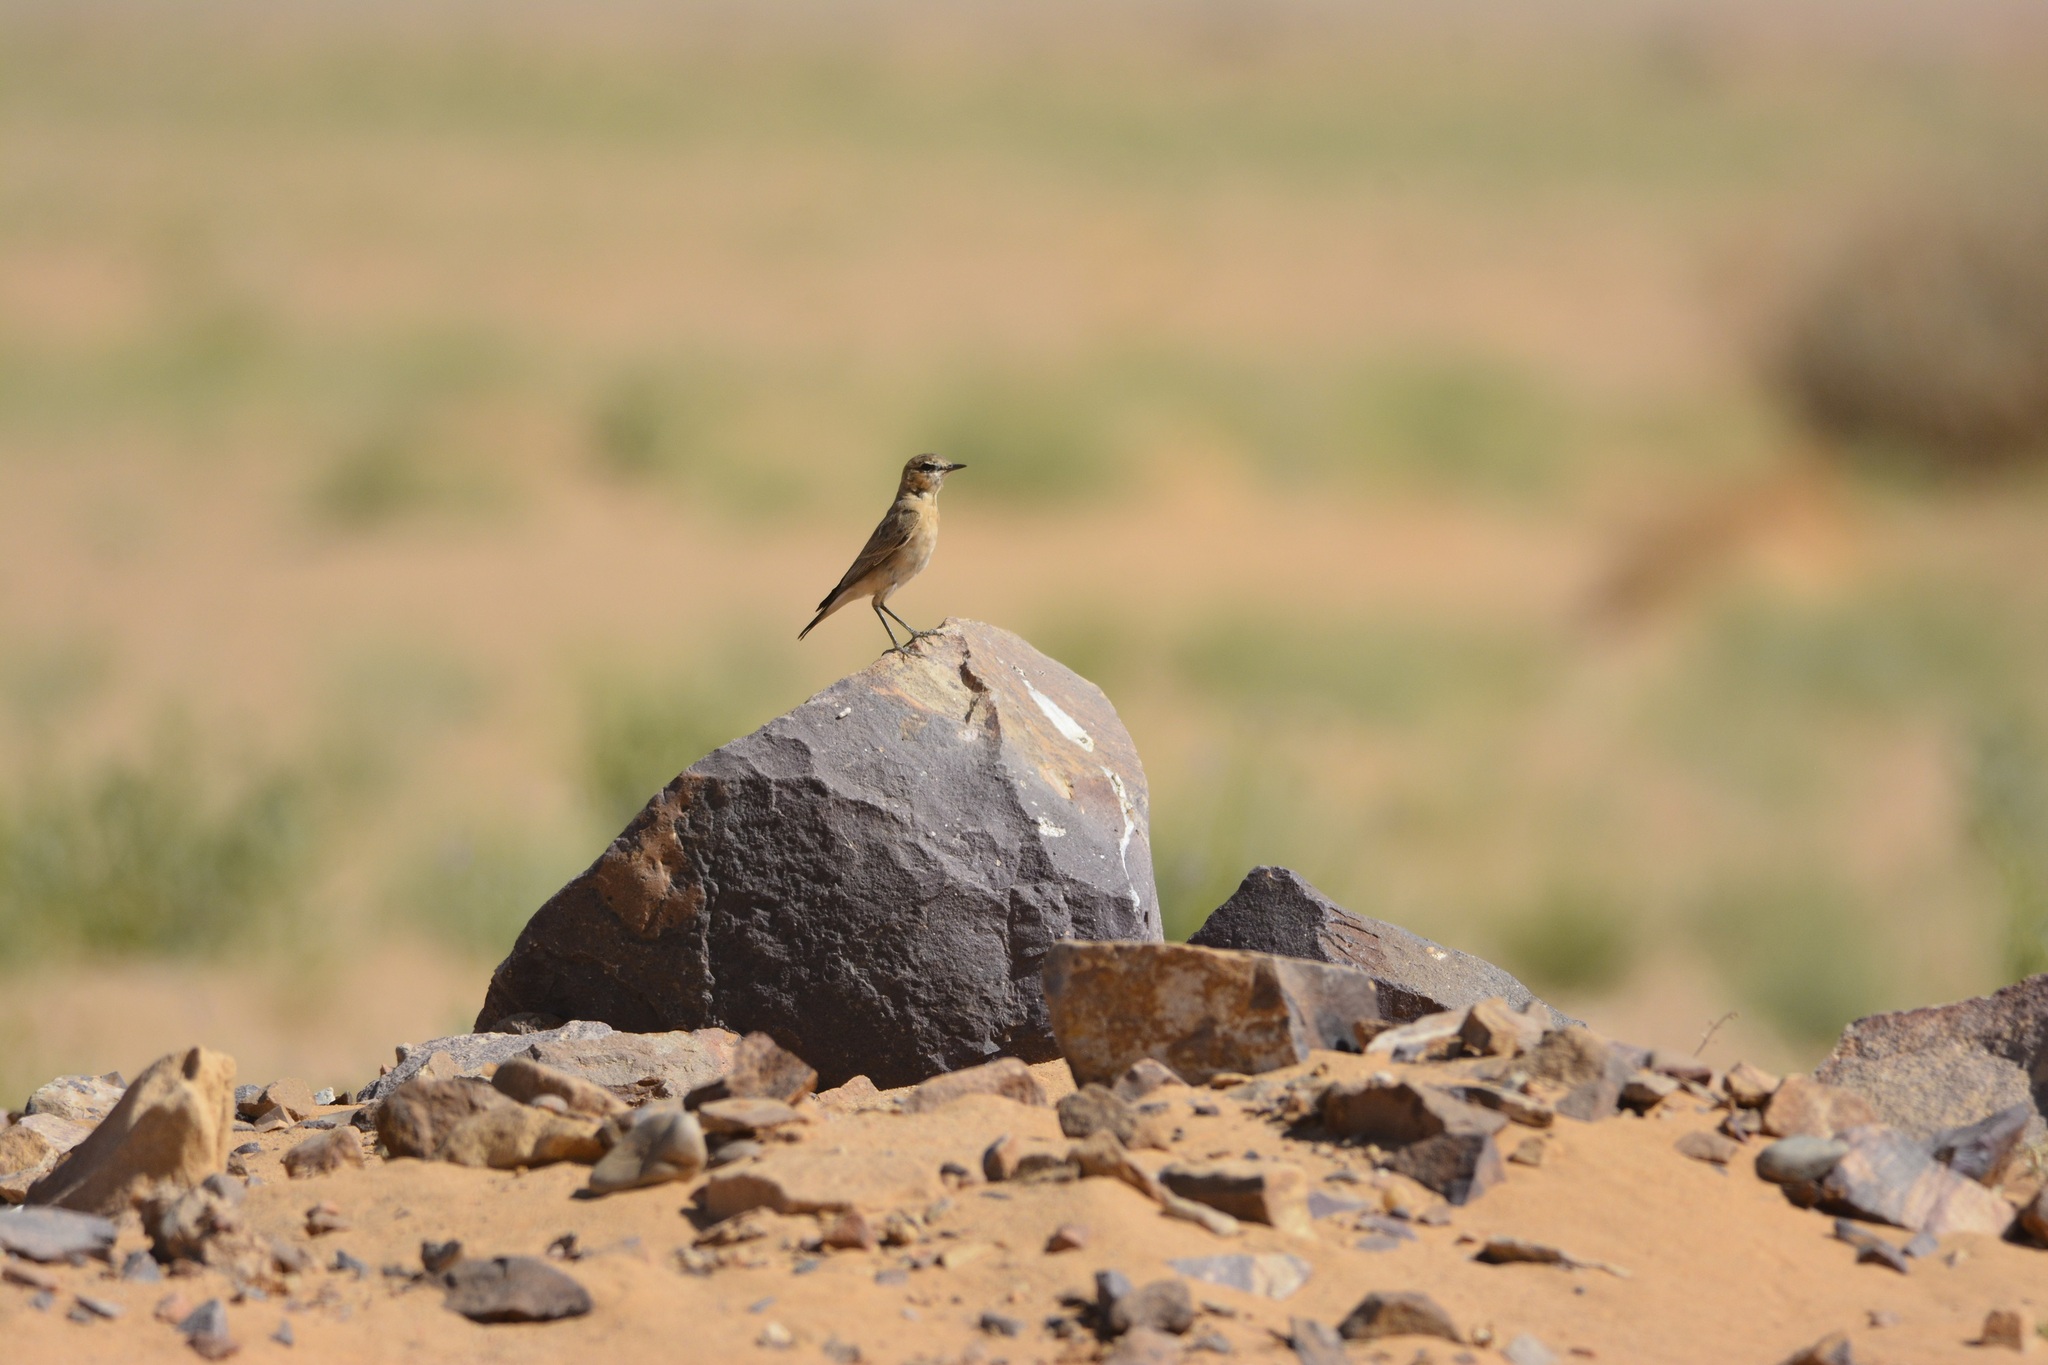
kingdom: Animalia
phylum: Chordata
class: Aves
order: Passeriformes
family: Muscicapidae
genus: Oenanthe
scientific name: Oenanthe isabellina
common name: Isabelline wheatear
